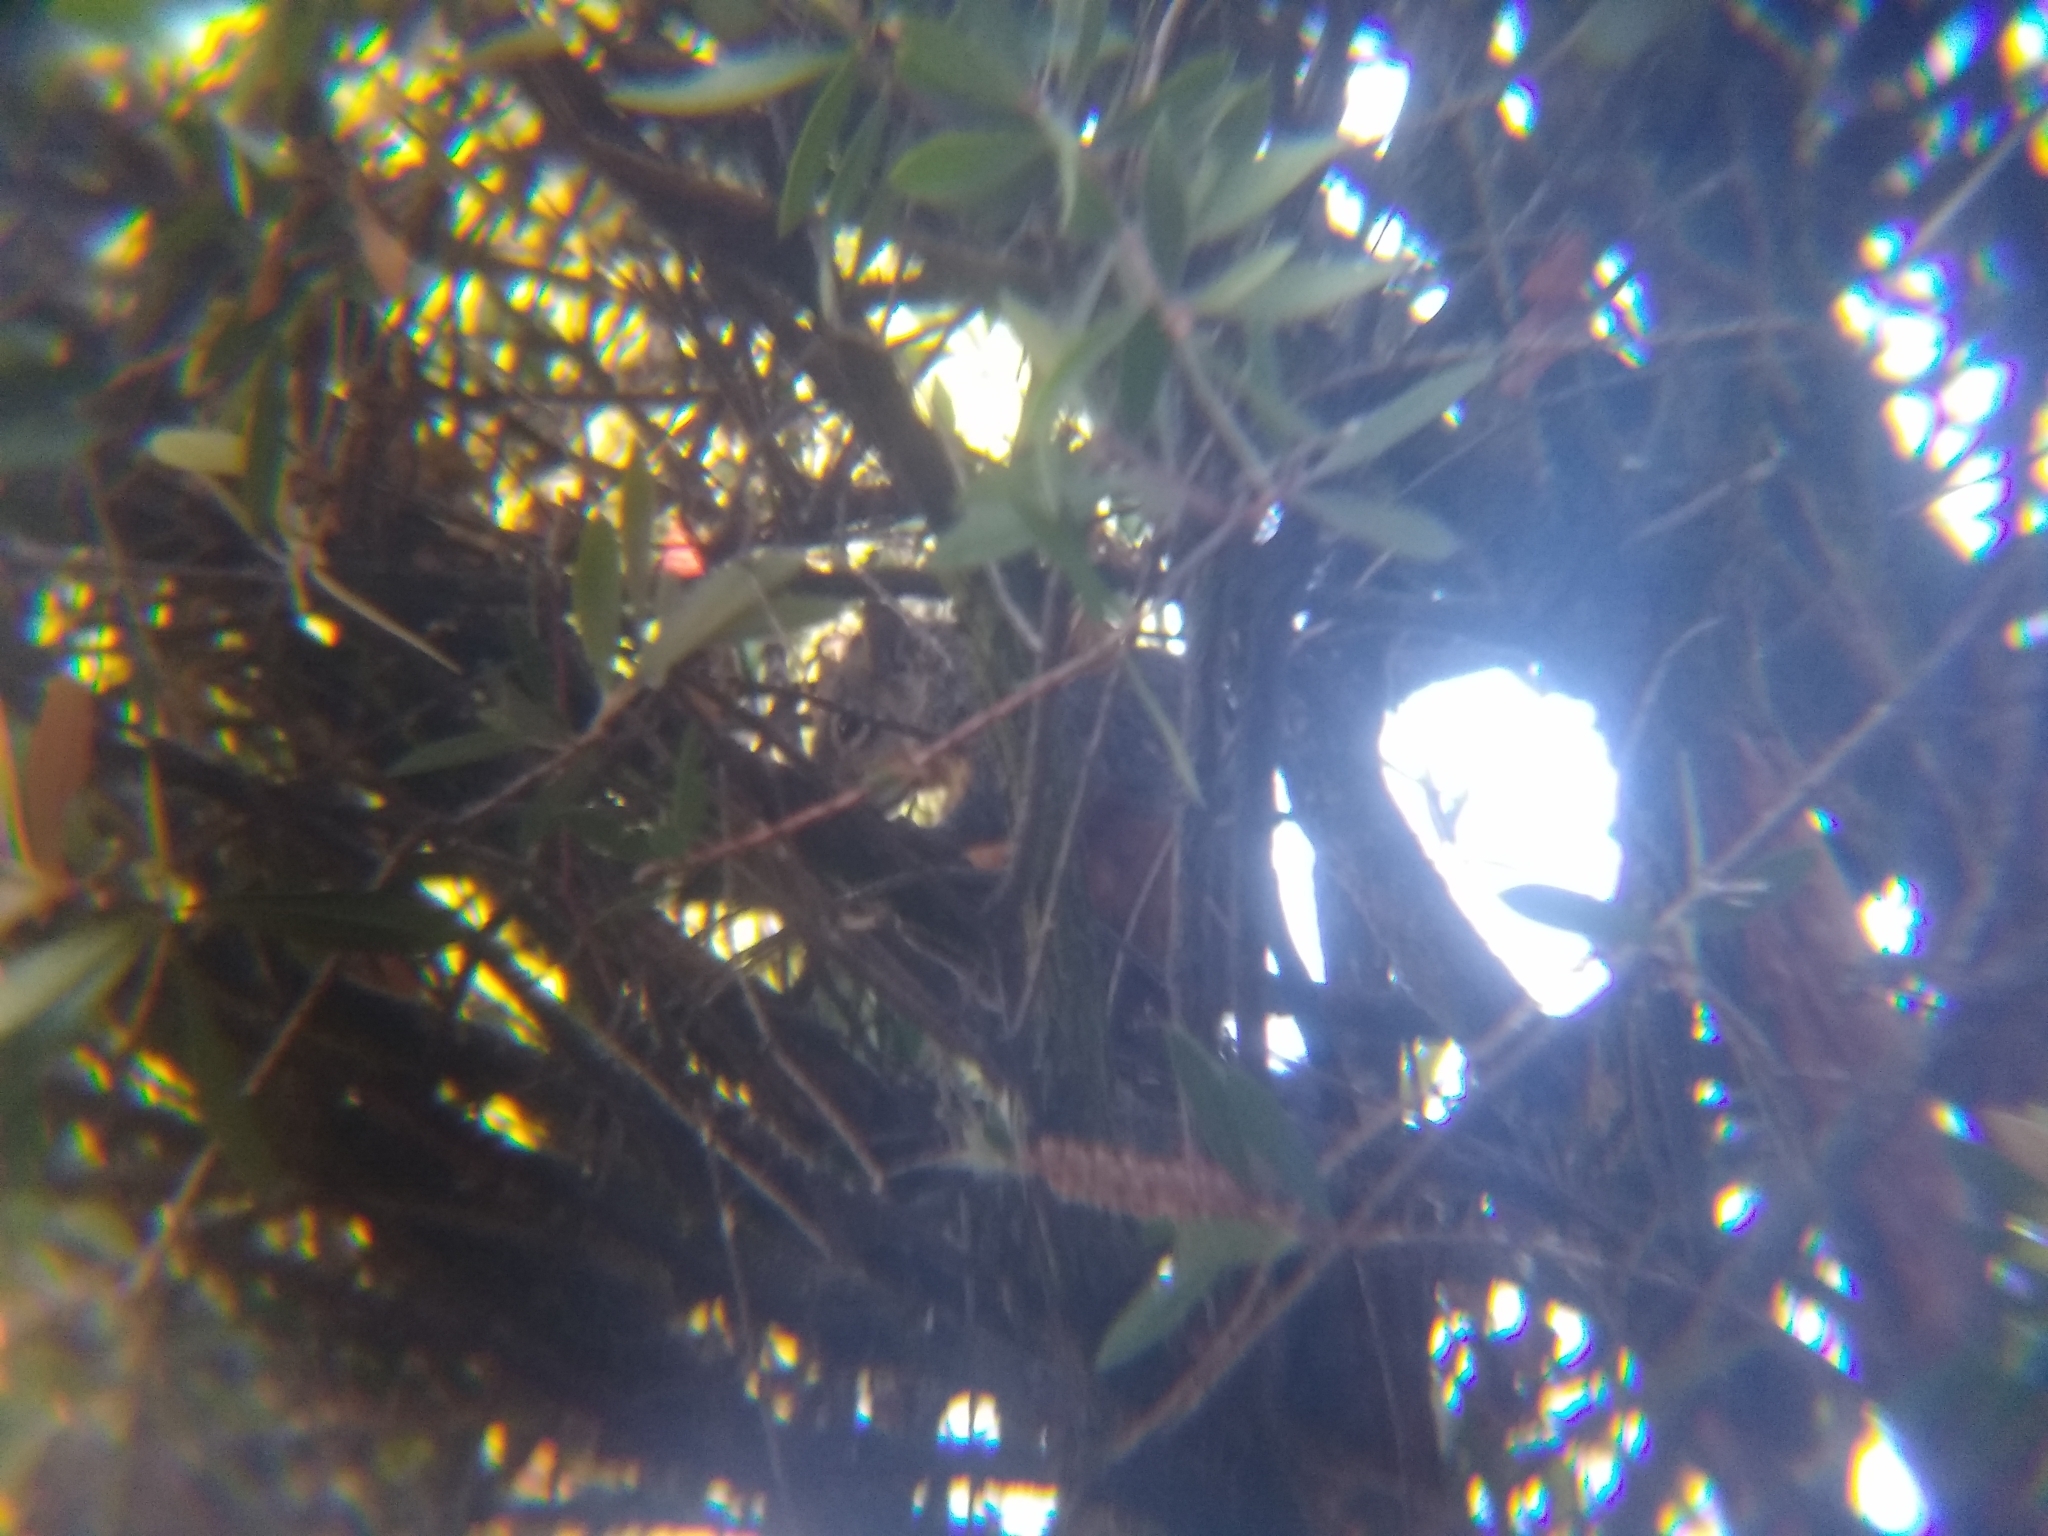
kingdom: Animalia
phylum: Chordata
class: Mammalia
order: Rodentia
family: Sciuridae
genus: Sciurus
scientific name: Sciurus aureogaster
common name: Red-bellied squirrel
